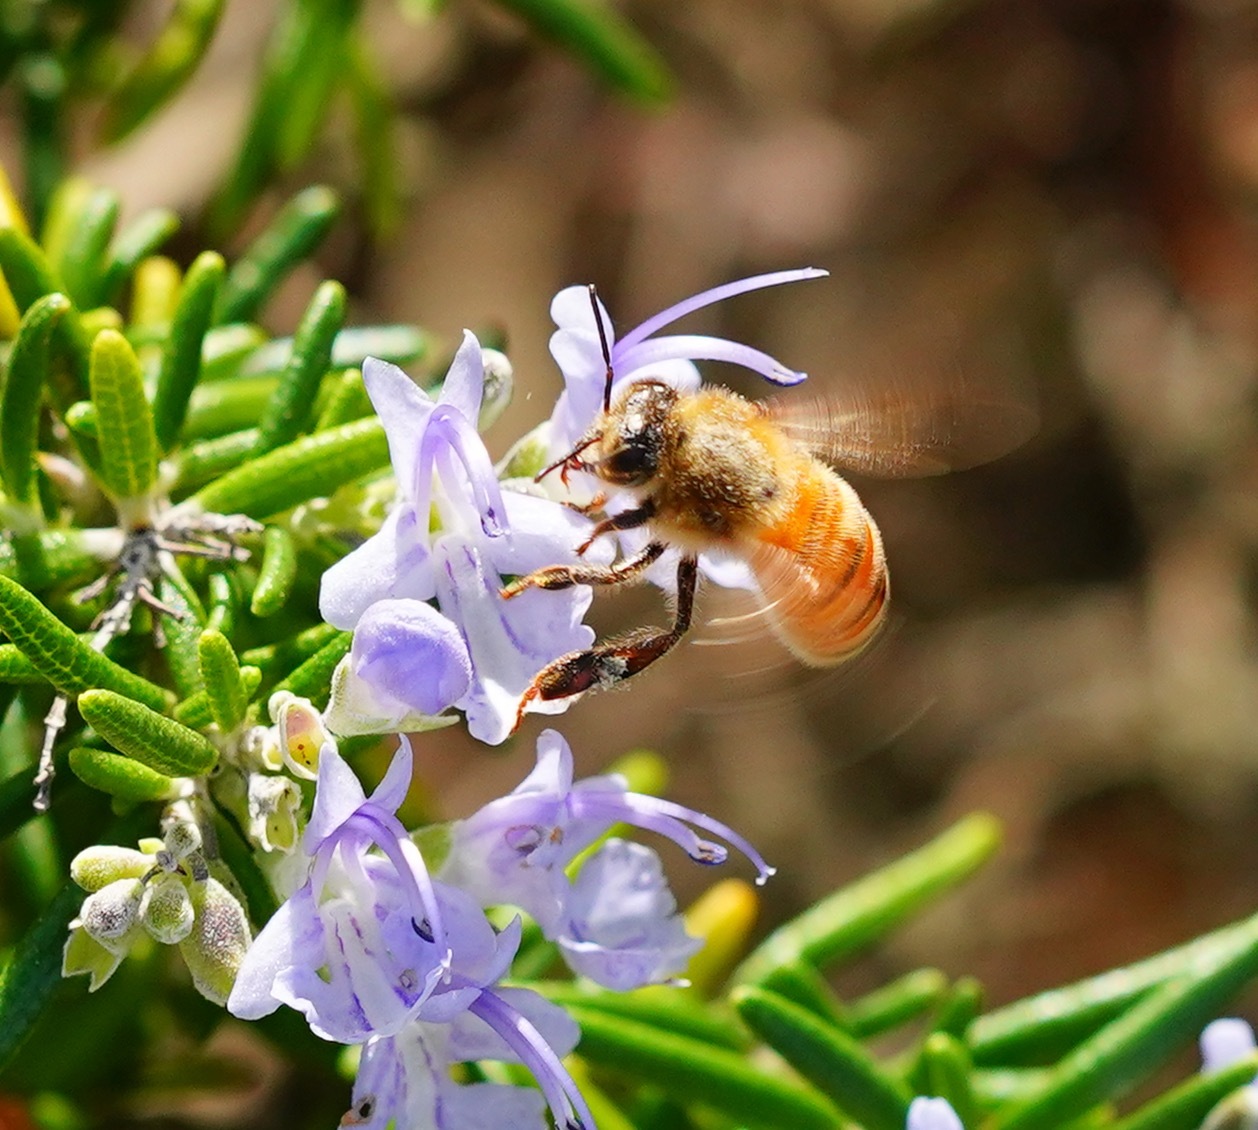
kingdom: Animalia
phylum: Arthropoda
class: Insecta
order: Hymenoptera
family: Apidae
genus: Apis
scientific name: Apis mellifera
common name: Honey bee
